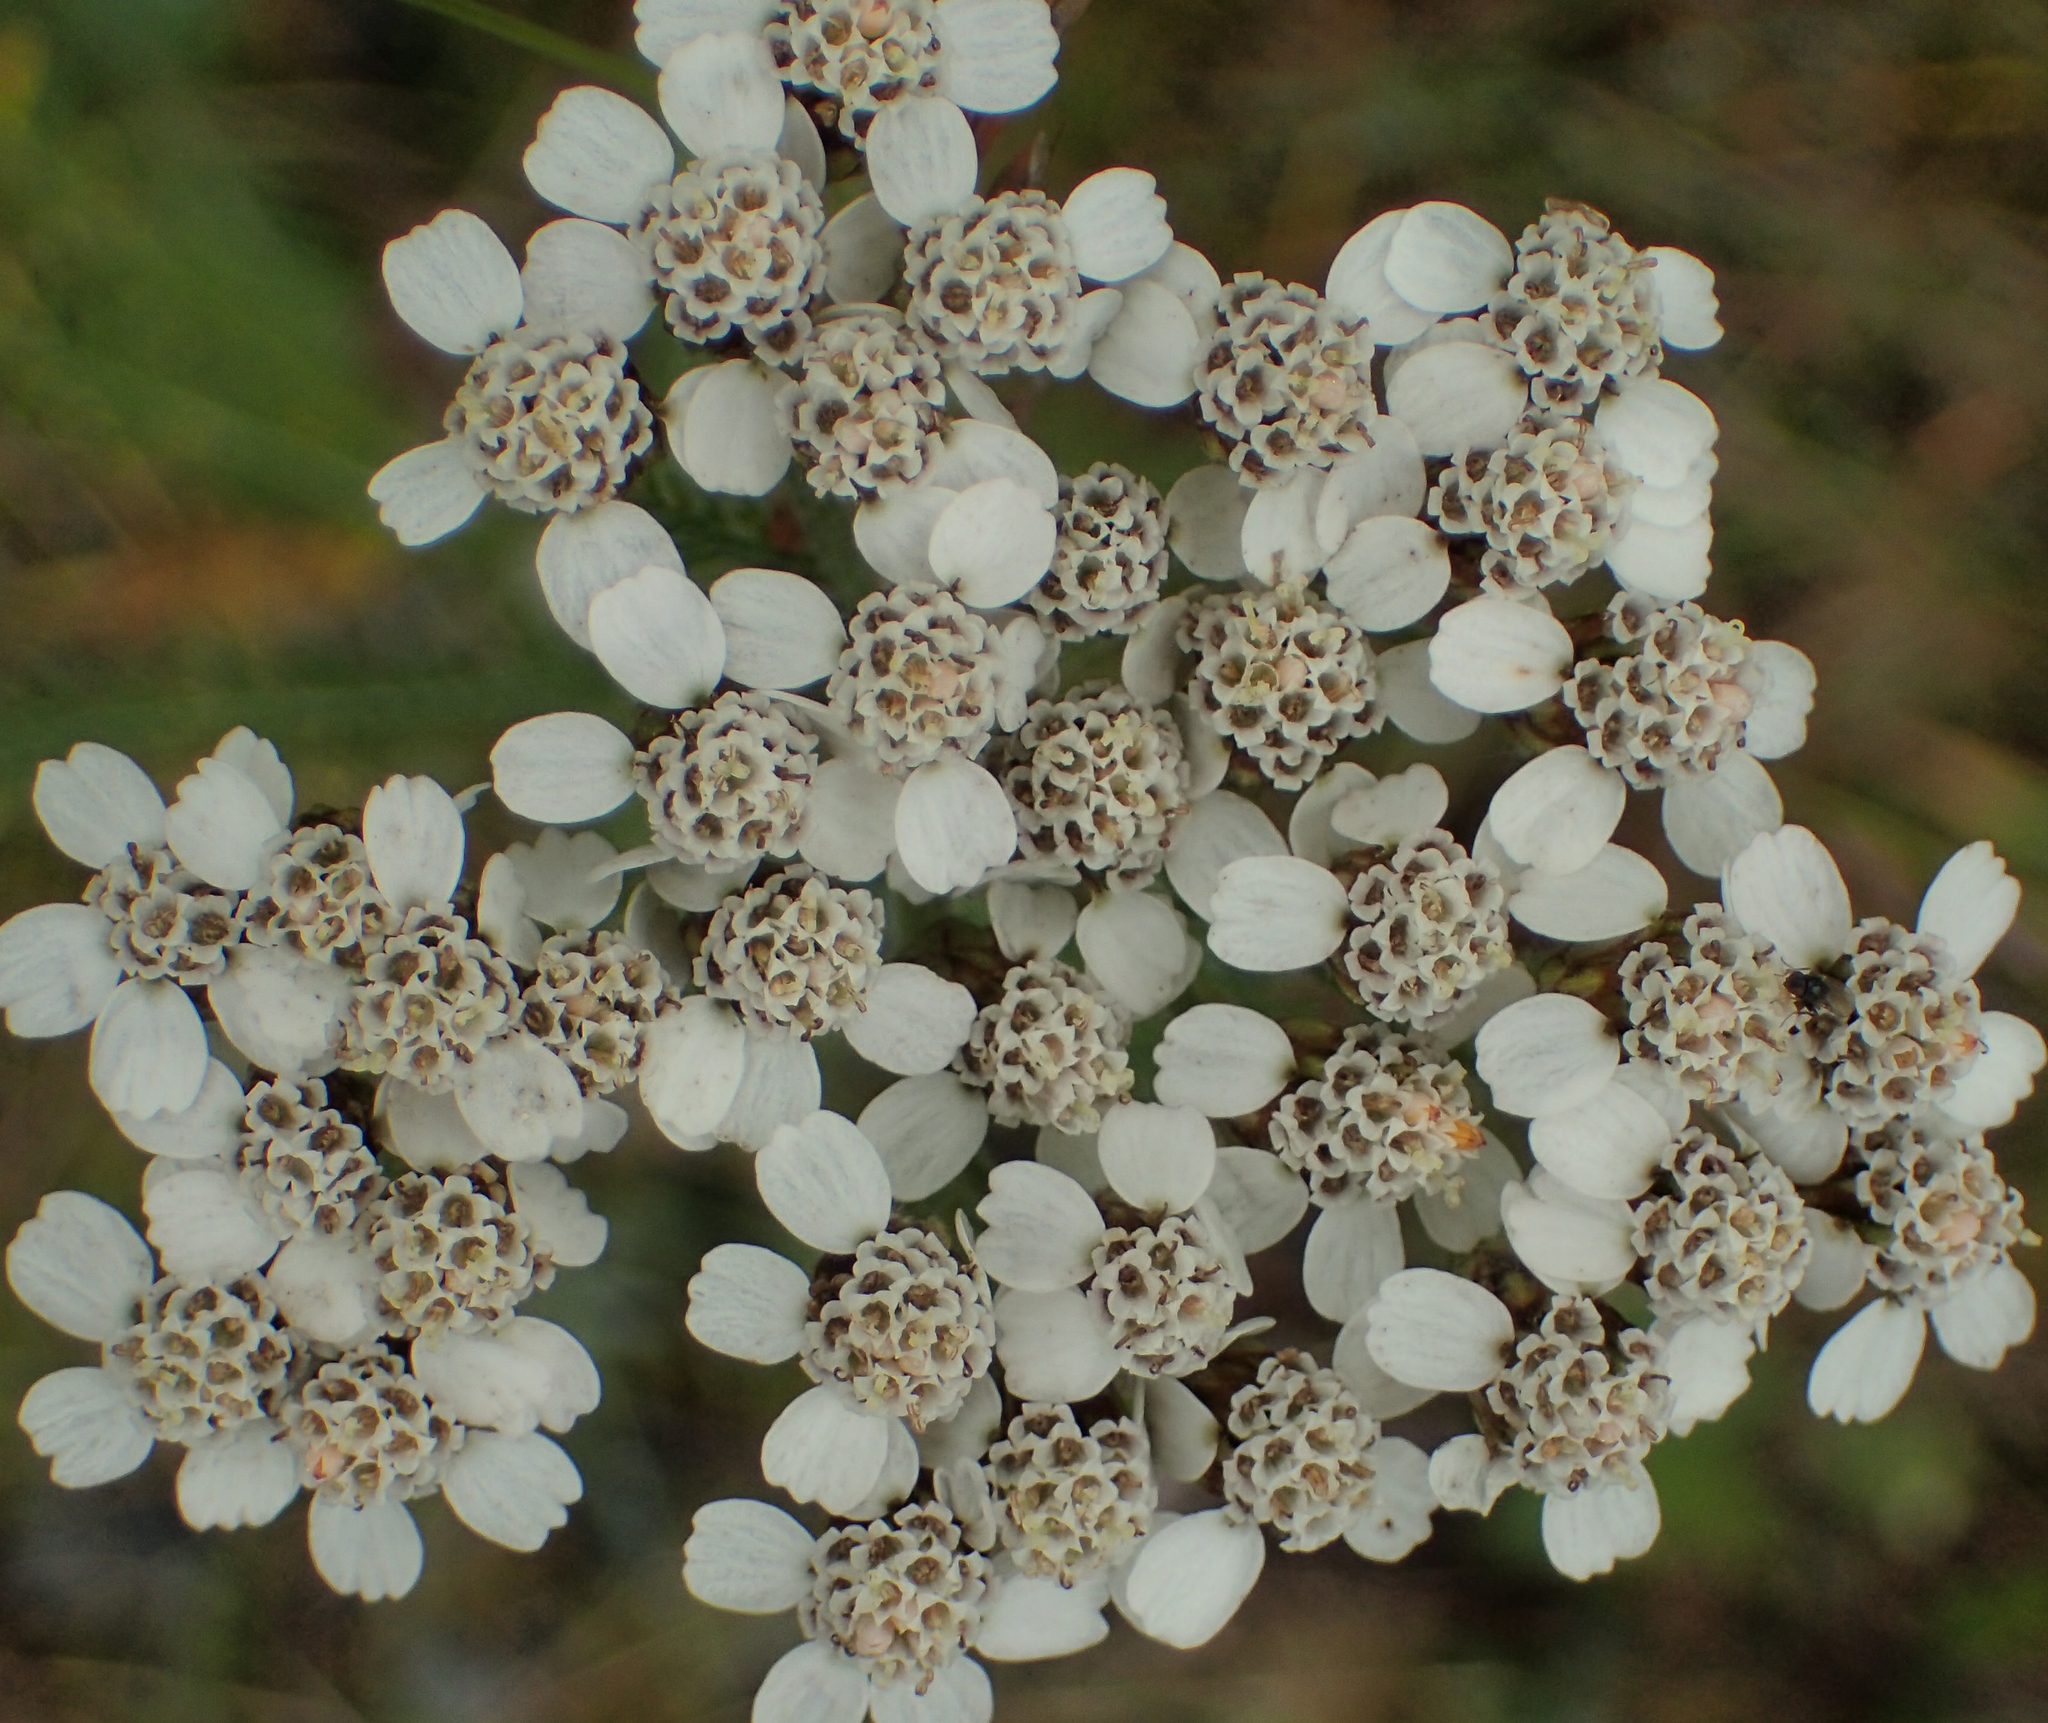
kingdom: Plantae
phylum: Tracheophyta
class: Magnoliopsida
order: Asterales
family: Asteraceae
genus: Achillea
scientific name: Achillea millefolium
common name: Yarrow
